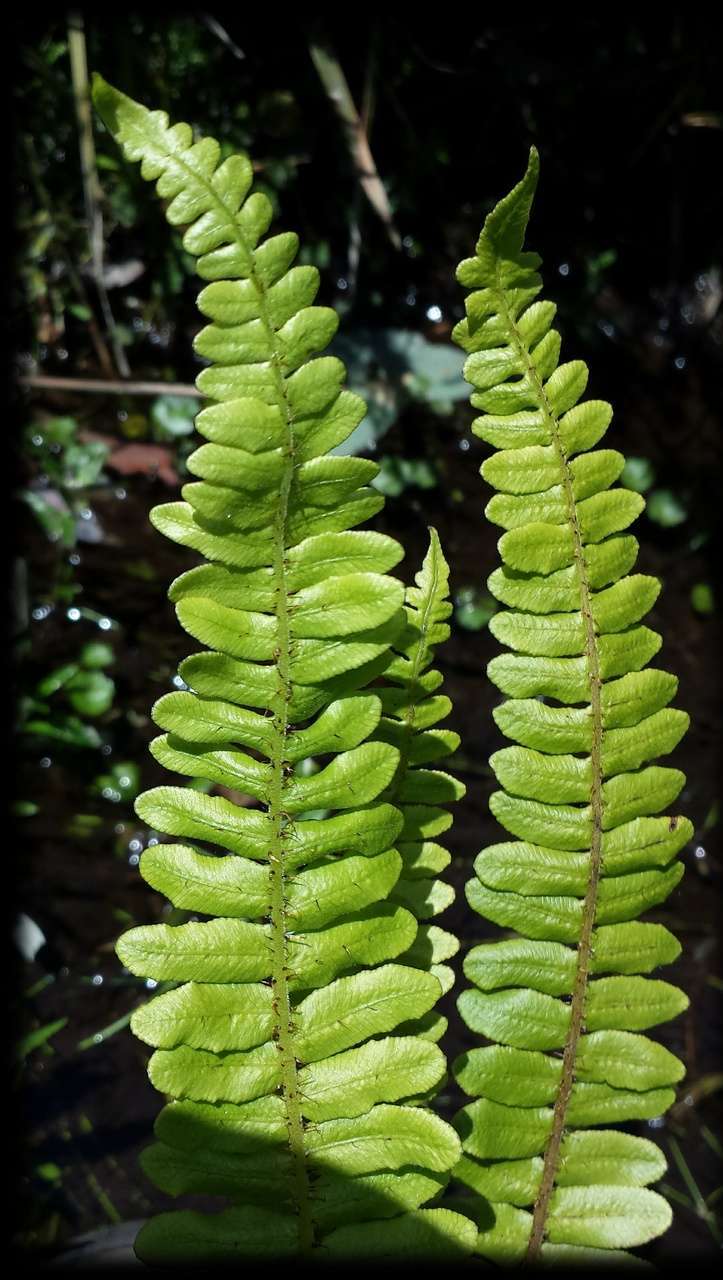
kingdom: Plantae
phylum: Tracheophyta
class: Polypodiopsida
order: Polypodiales
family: Blechnaceae
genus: Cranfillia
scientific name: Cranfillia fluviatilis
